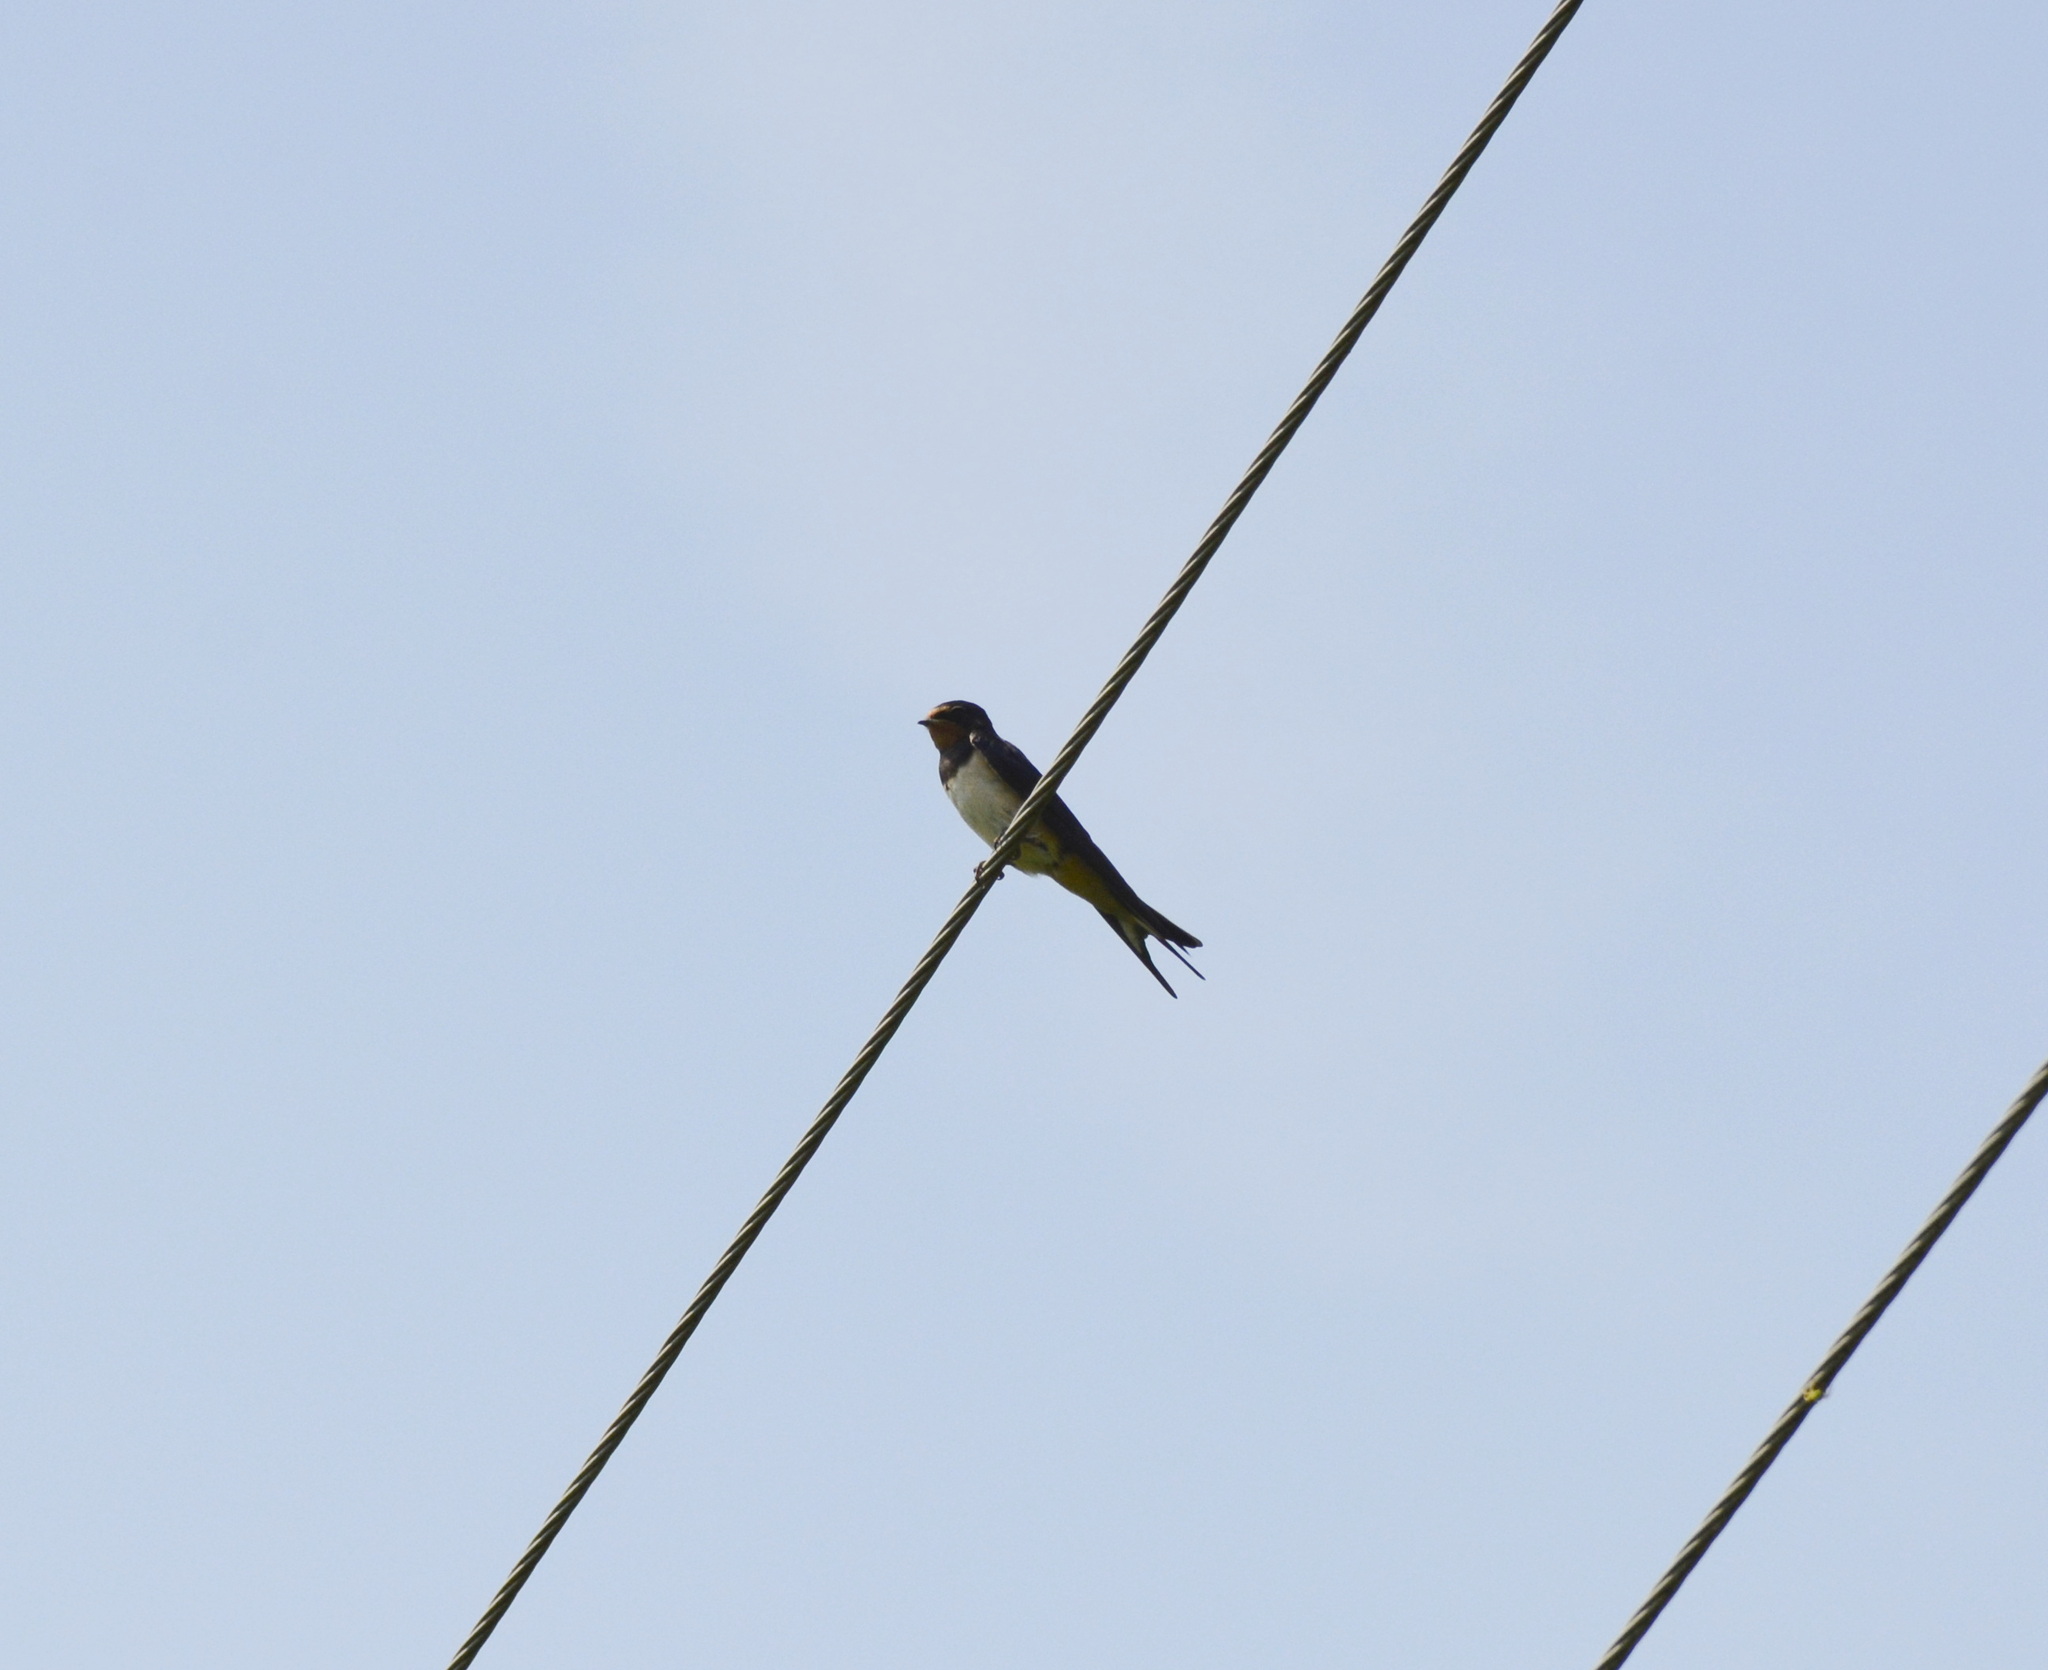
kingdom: Animalia
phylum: Chordata
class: Aves
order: Passeriformes
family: Hirundinidae
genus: Hirundo
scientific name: Hirundo rustica
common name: Barn swallow
